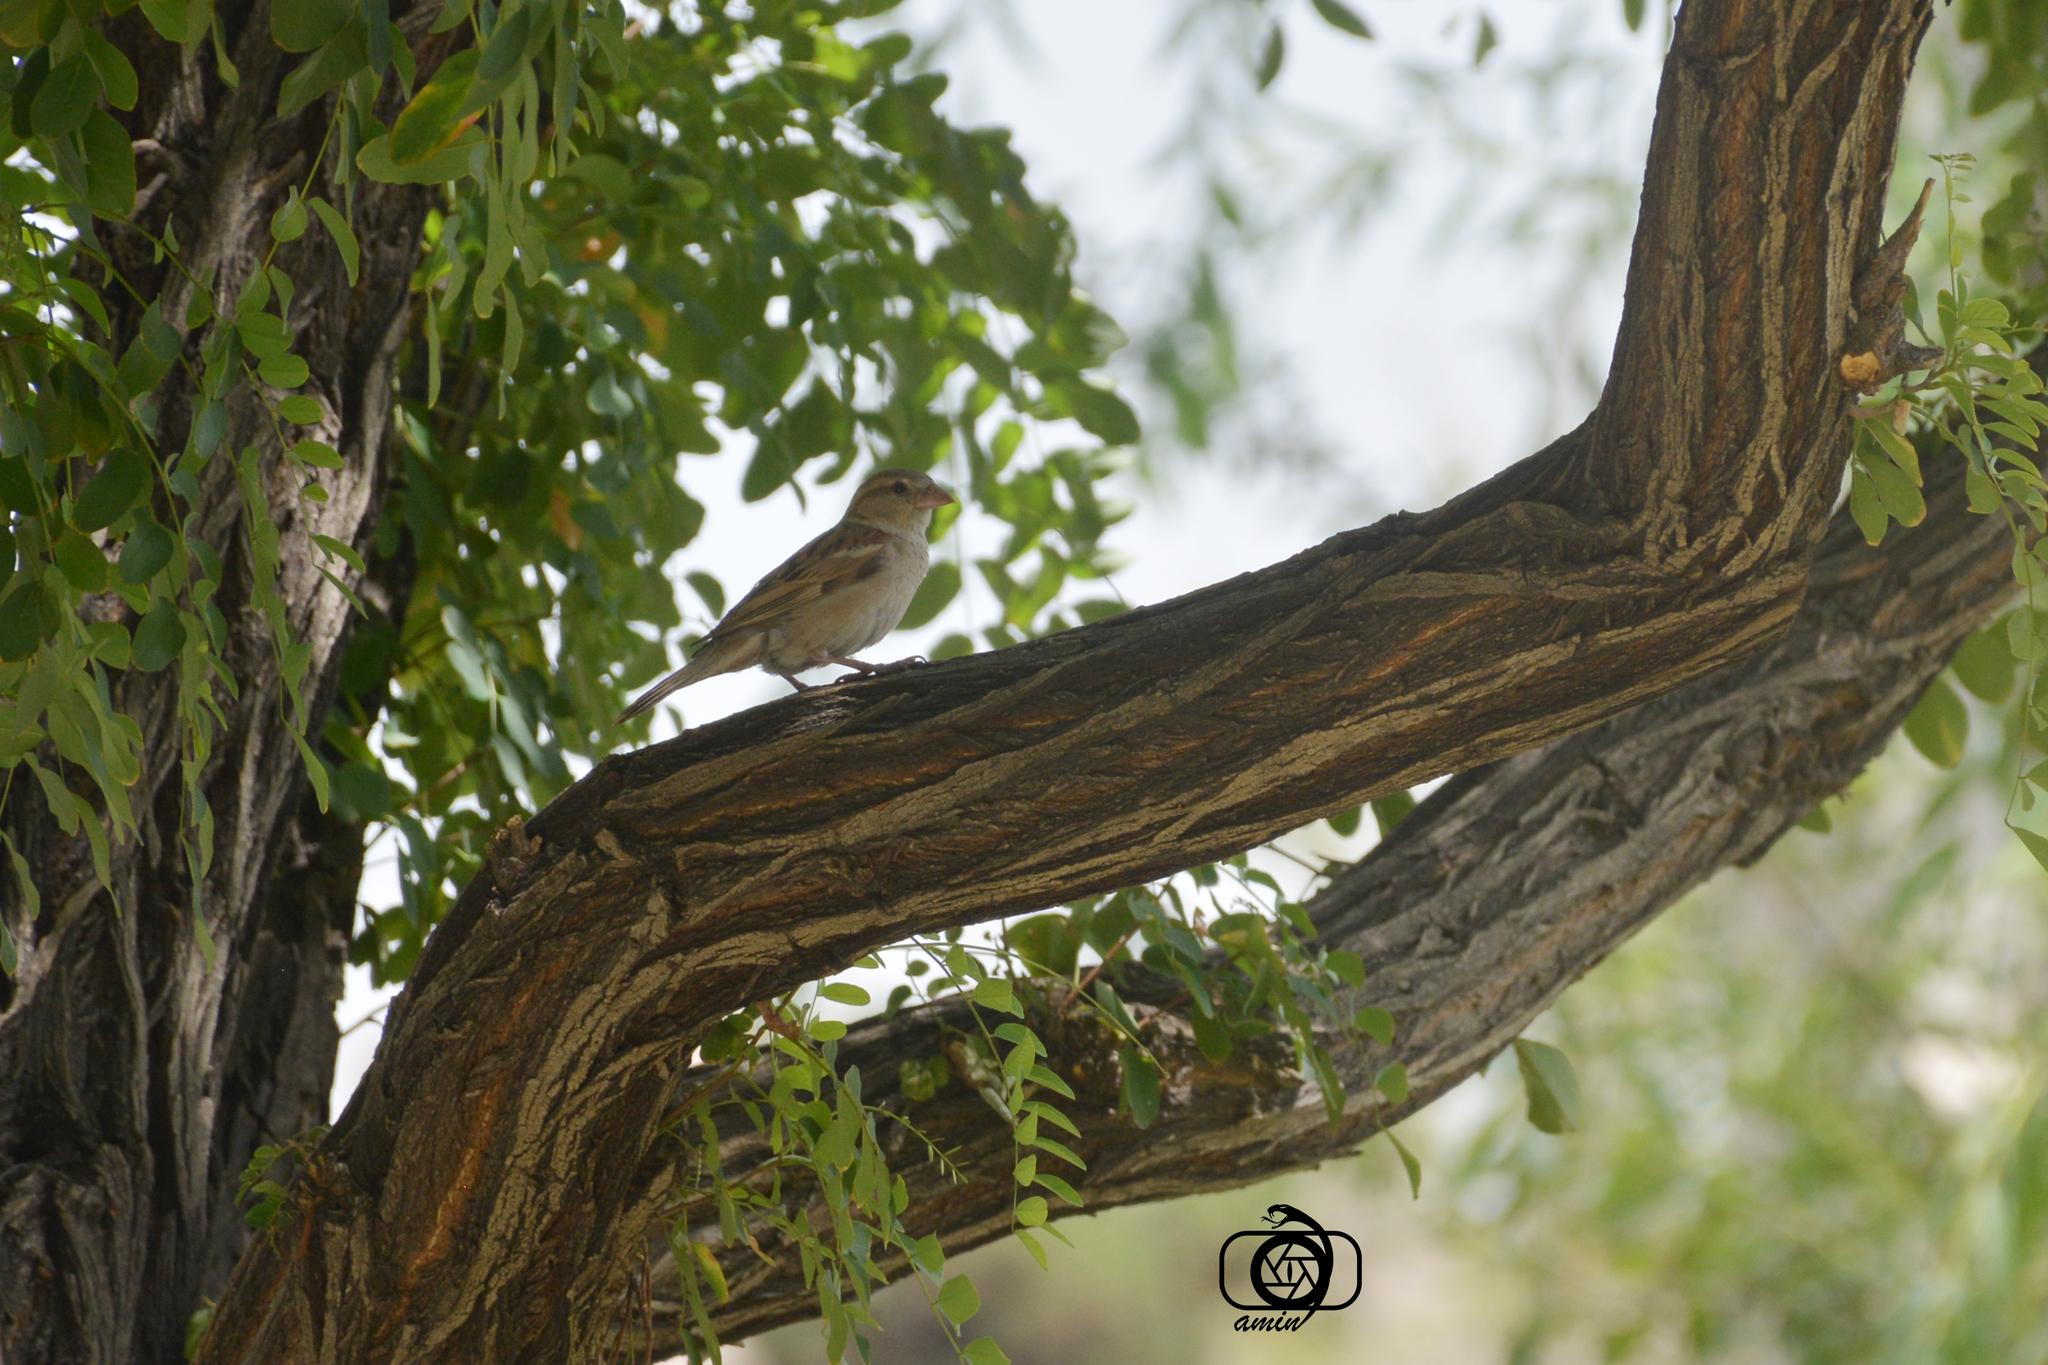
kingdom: Animalia
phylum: Chordata
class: Aves
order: Passeriformes
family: Passeridae
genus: Passer
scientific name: Passer domesticus
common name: House sparrow
